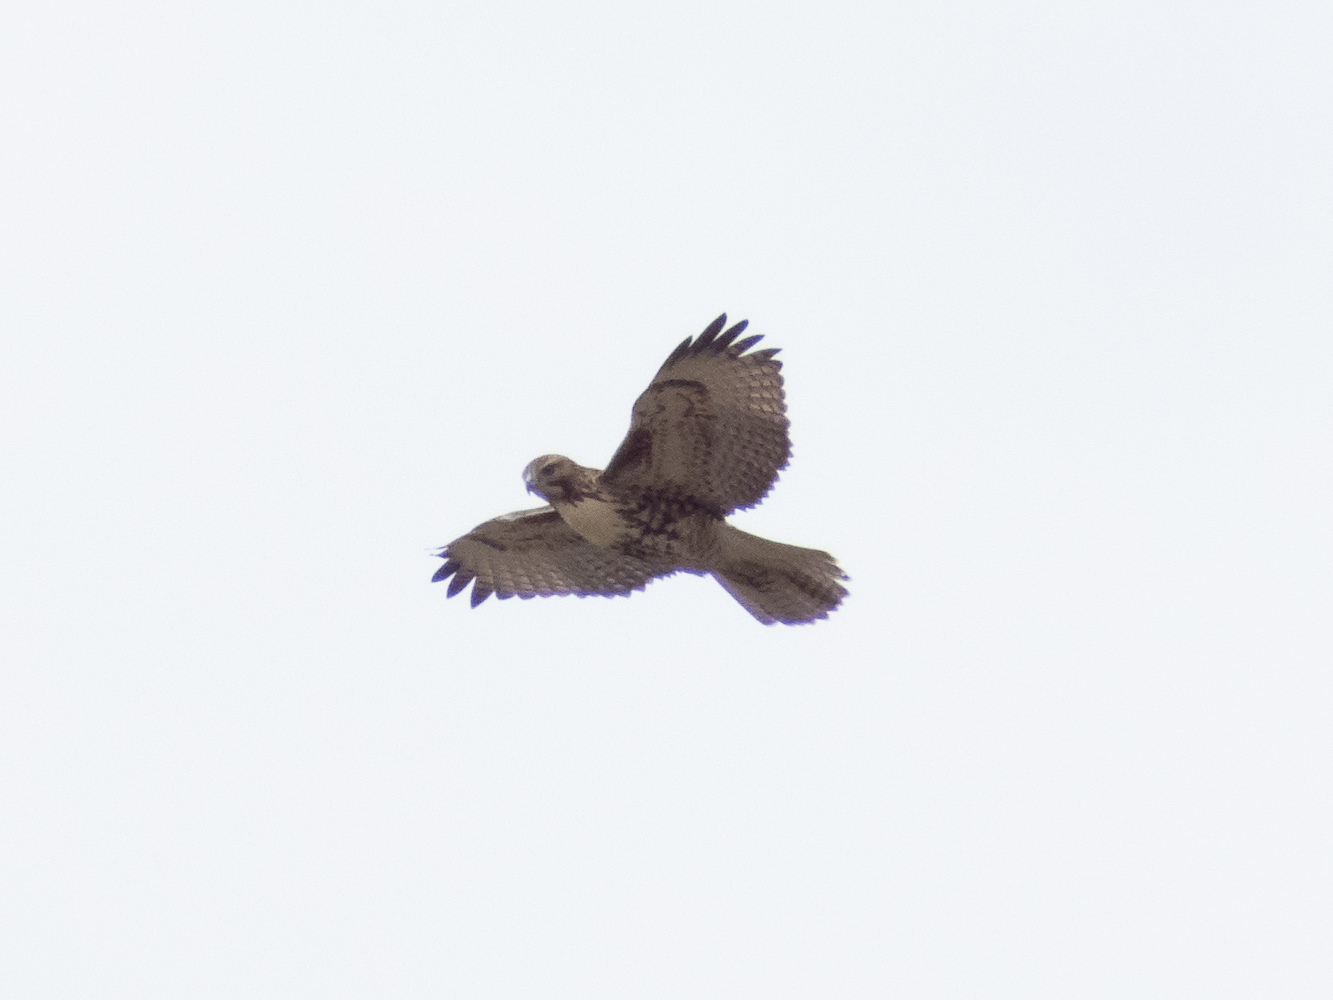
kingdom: Animalia
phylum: Chordata
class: Aves
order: Accipitriformes
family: Accipitridae
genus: Buteo
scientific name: Buteo jamaicensis
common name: Red-tailed hawk
